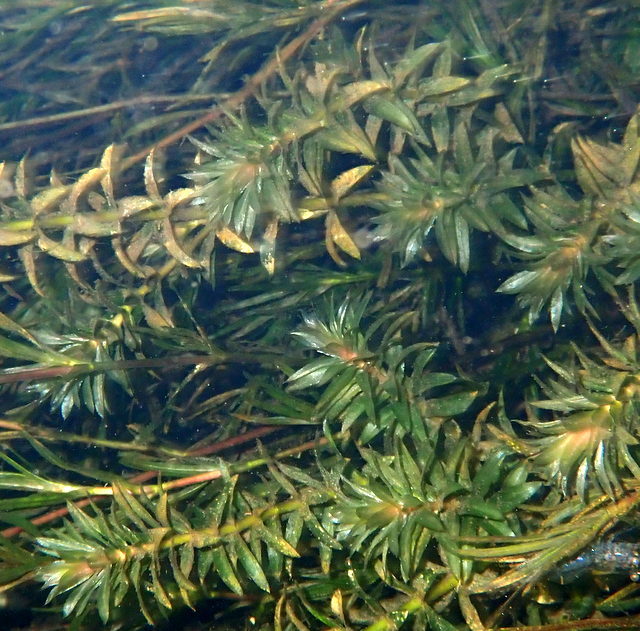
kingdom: Plantae
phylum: Tracheophyta
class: Liliopsida
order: Alismatales
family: Hydrocharitaceae
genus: Hydrilla
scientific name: Hydrilla verticillata
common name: Florida-elodea
